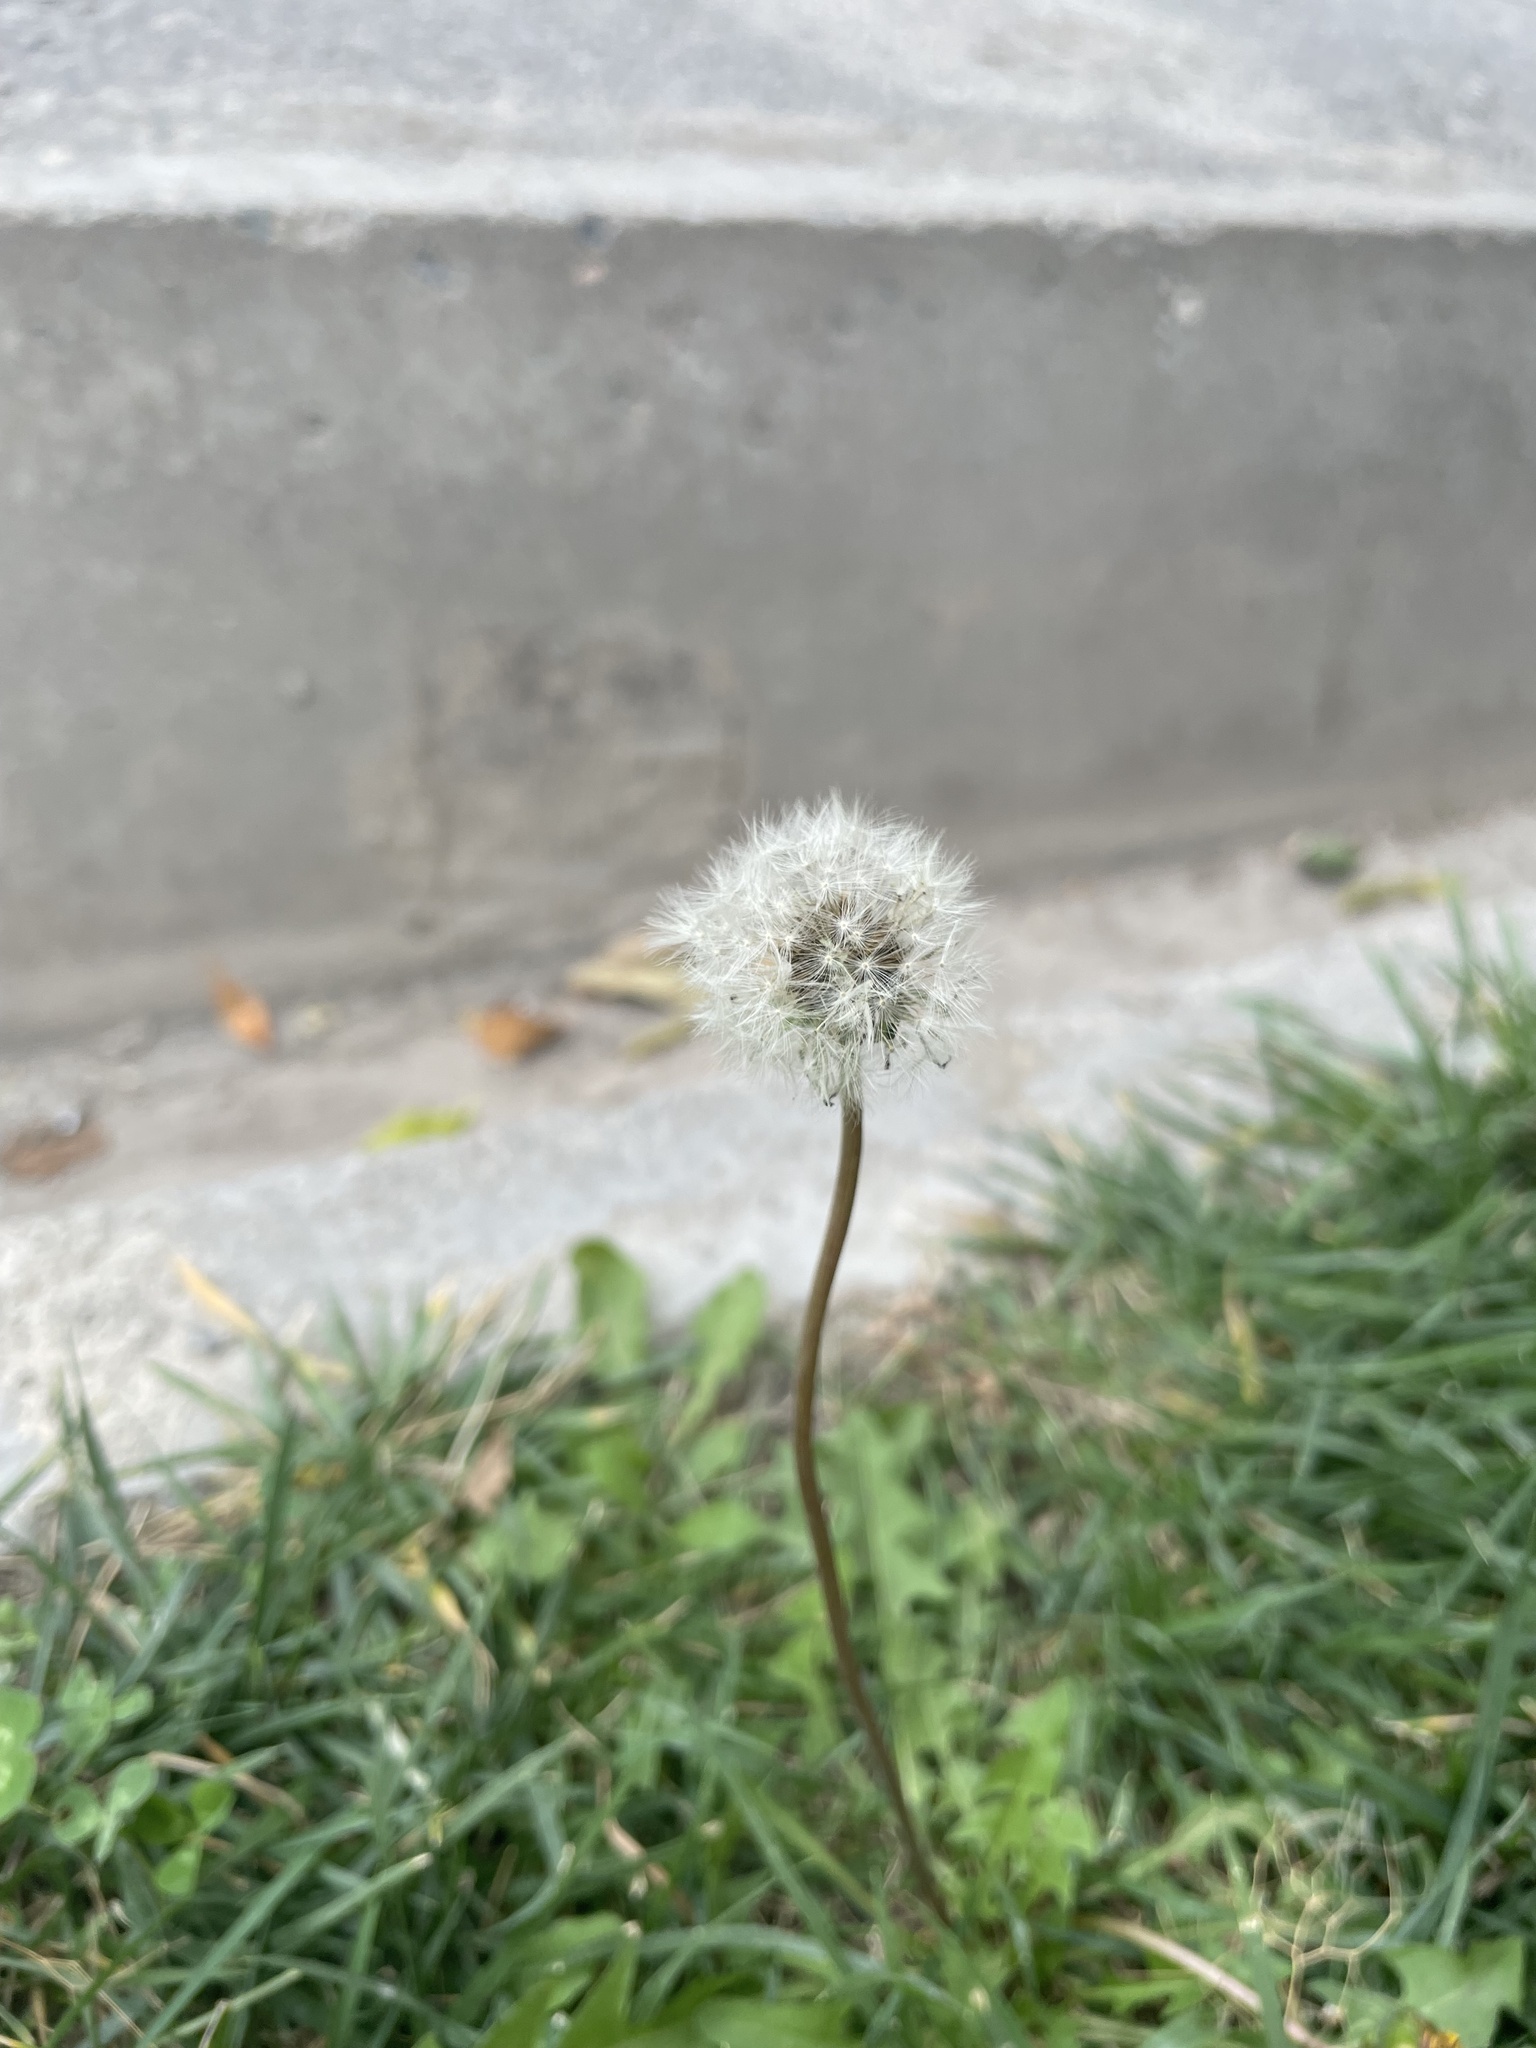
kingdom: Plantae
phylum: Tracheophyta
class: Magnoliopsida
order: Asterales
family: Asteraceae
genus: Taraxacum
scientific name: Taraxacum officinale
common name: Common dandelion
